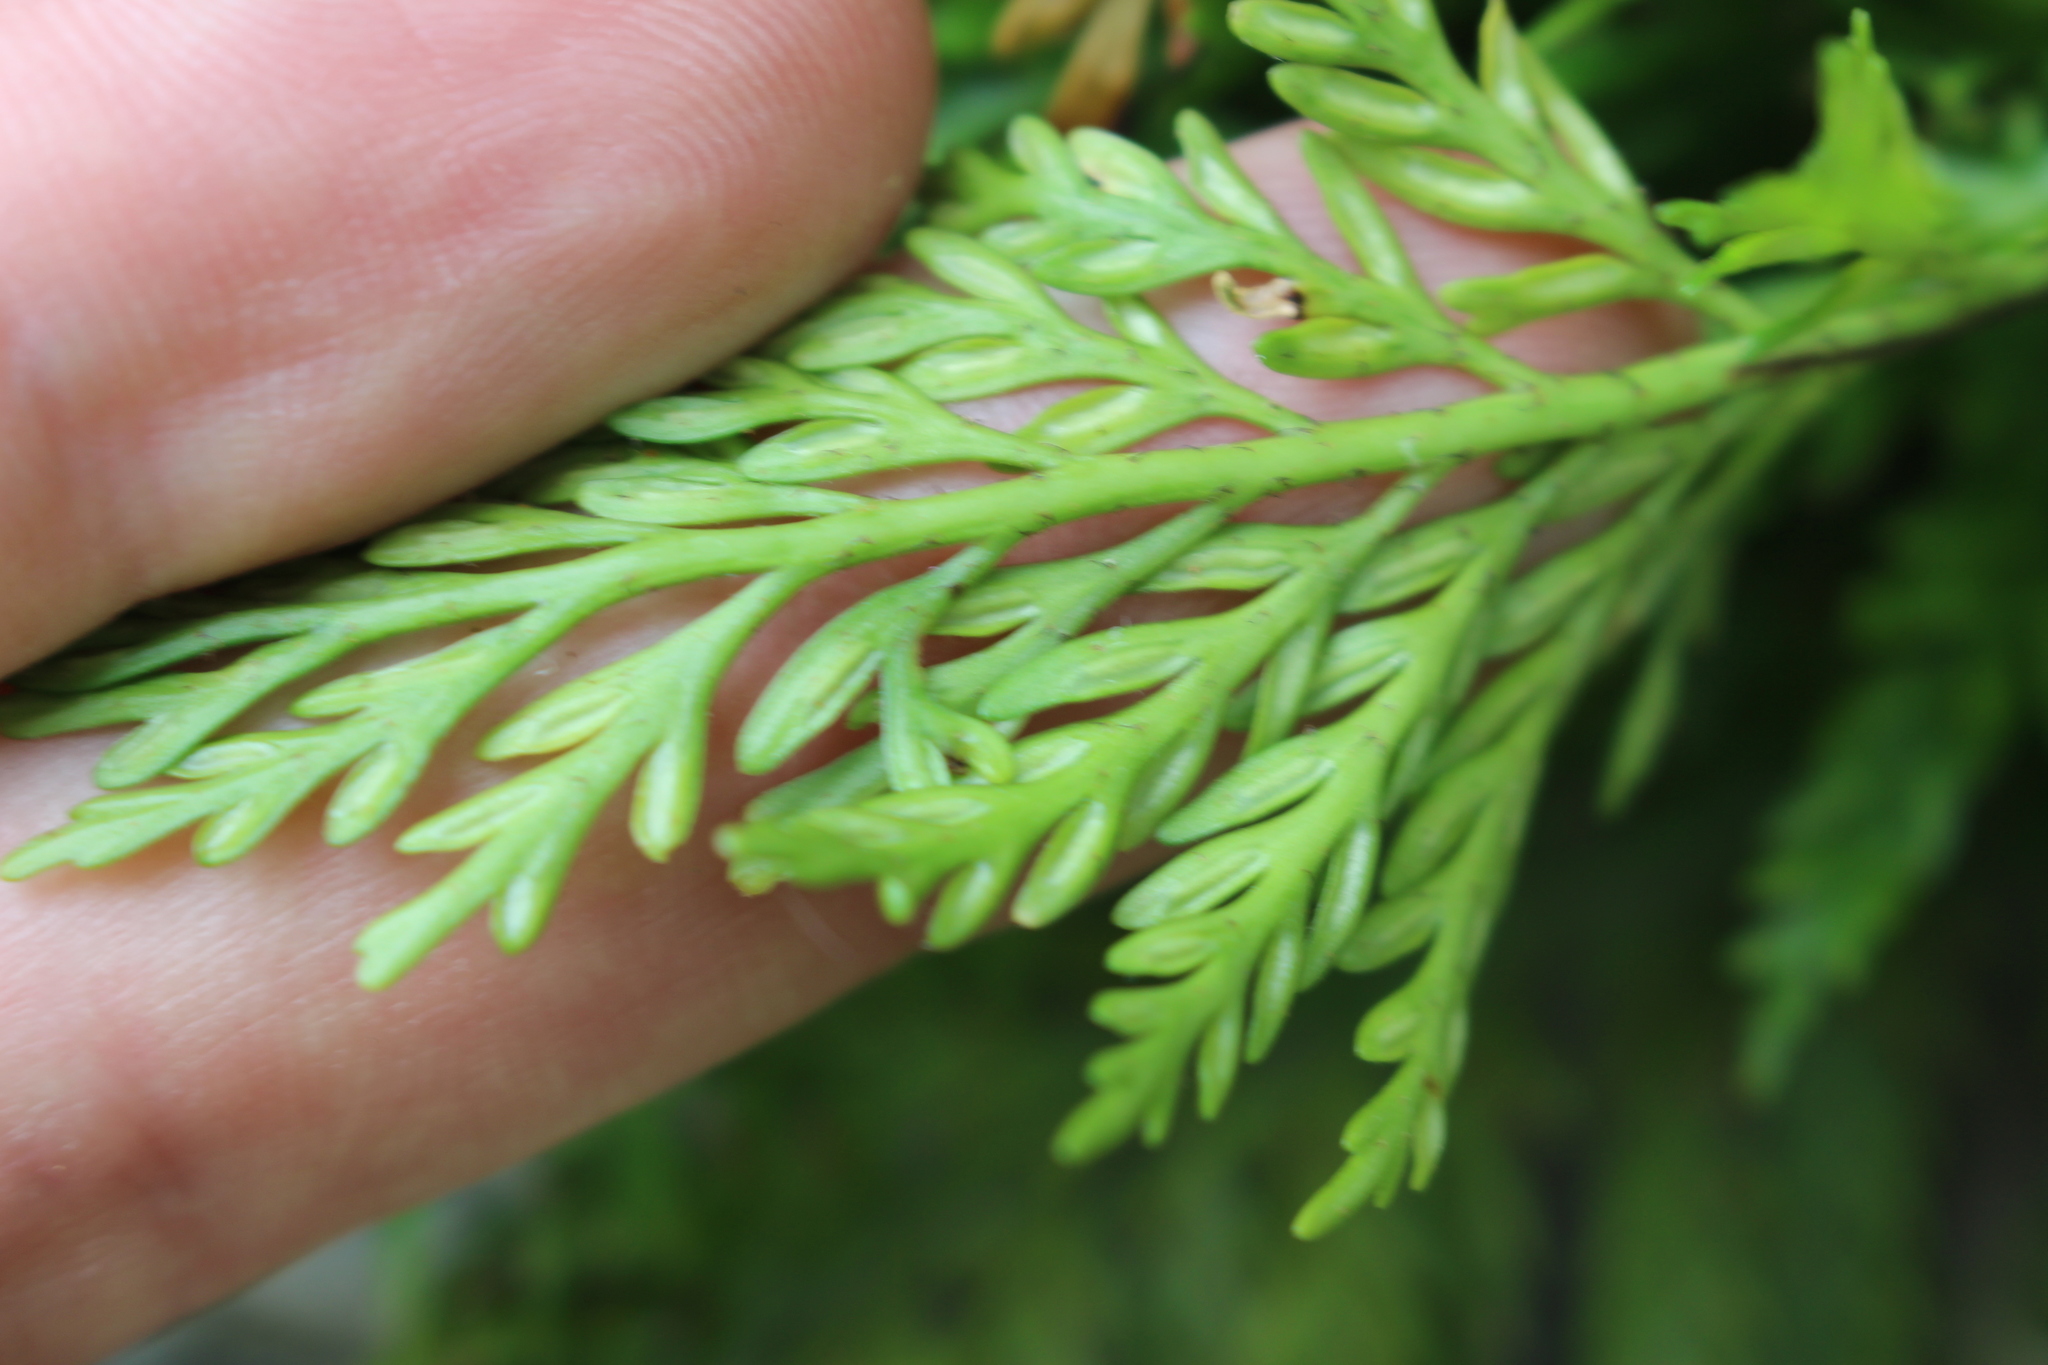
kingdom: Plantae
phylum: Tracheophyta
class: Polypodiopsida
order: Polypodiales
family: Aspleniaceae
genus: Asplenium
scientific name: Asplenium appendiculatum
